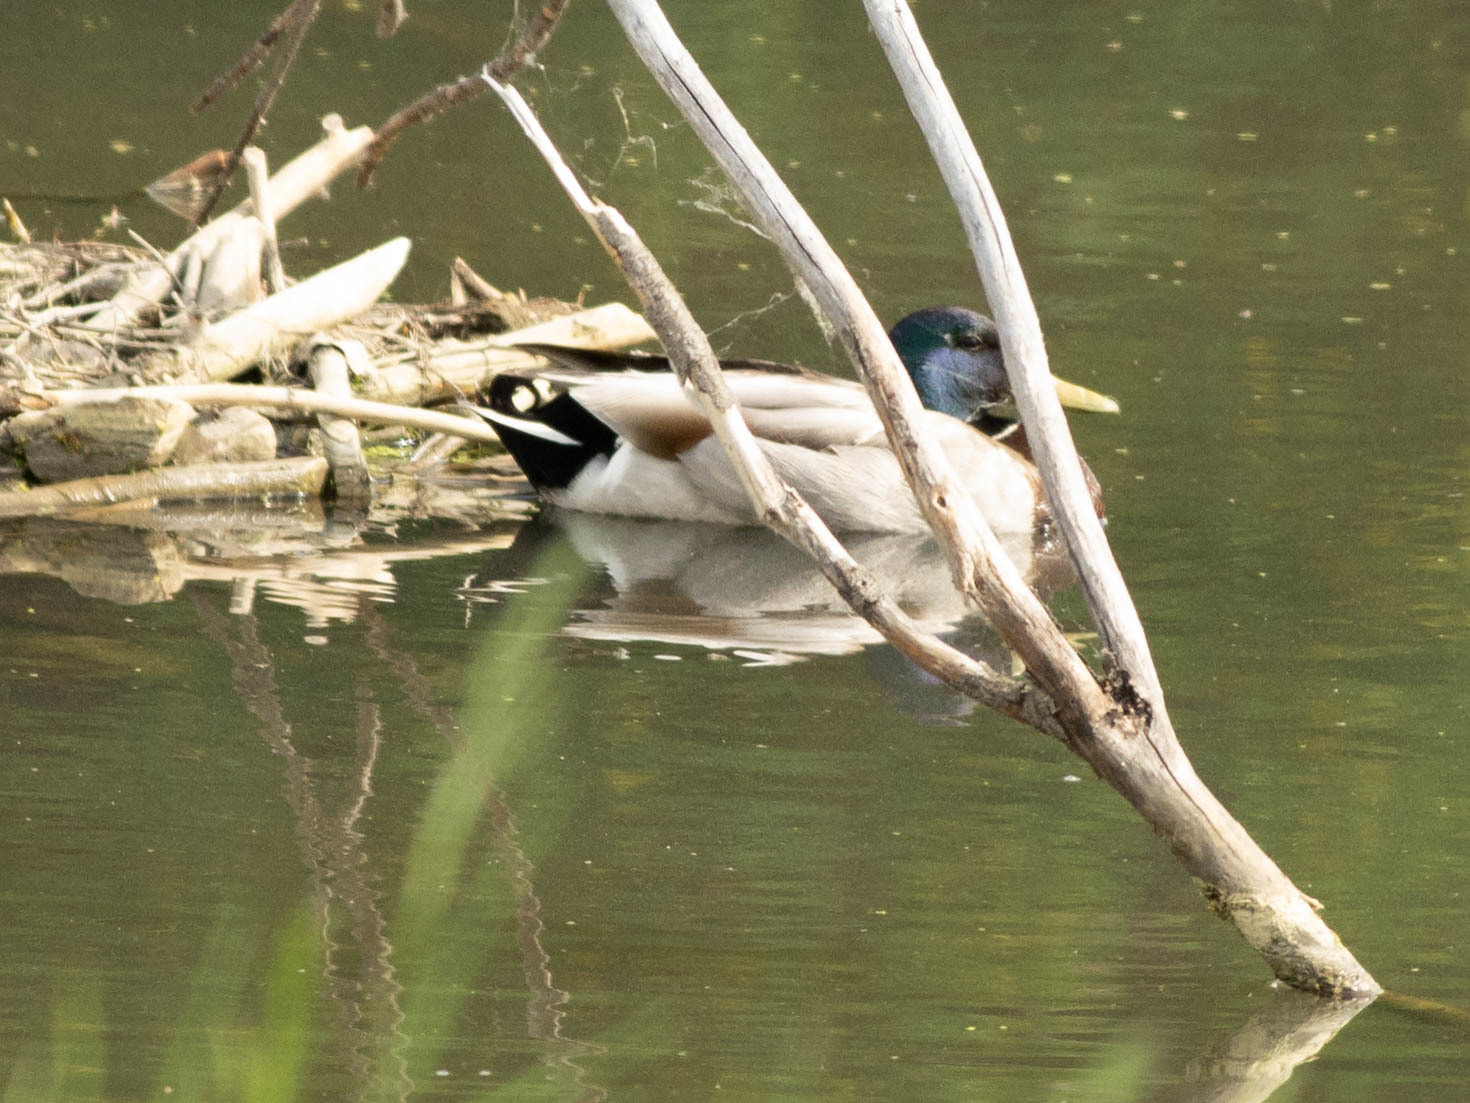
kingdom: Animalia
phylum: Chordata
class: Aves
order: Anseriformes
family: Anatidae
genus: Anas
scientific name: Anas platyrhynchos
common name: Mallard
